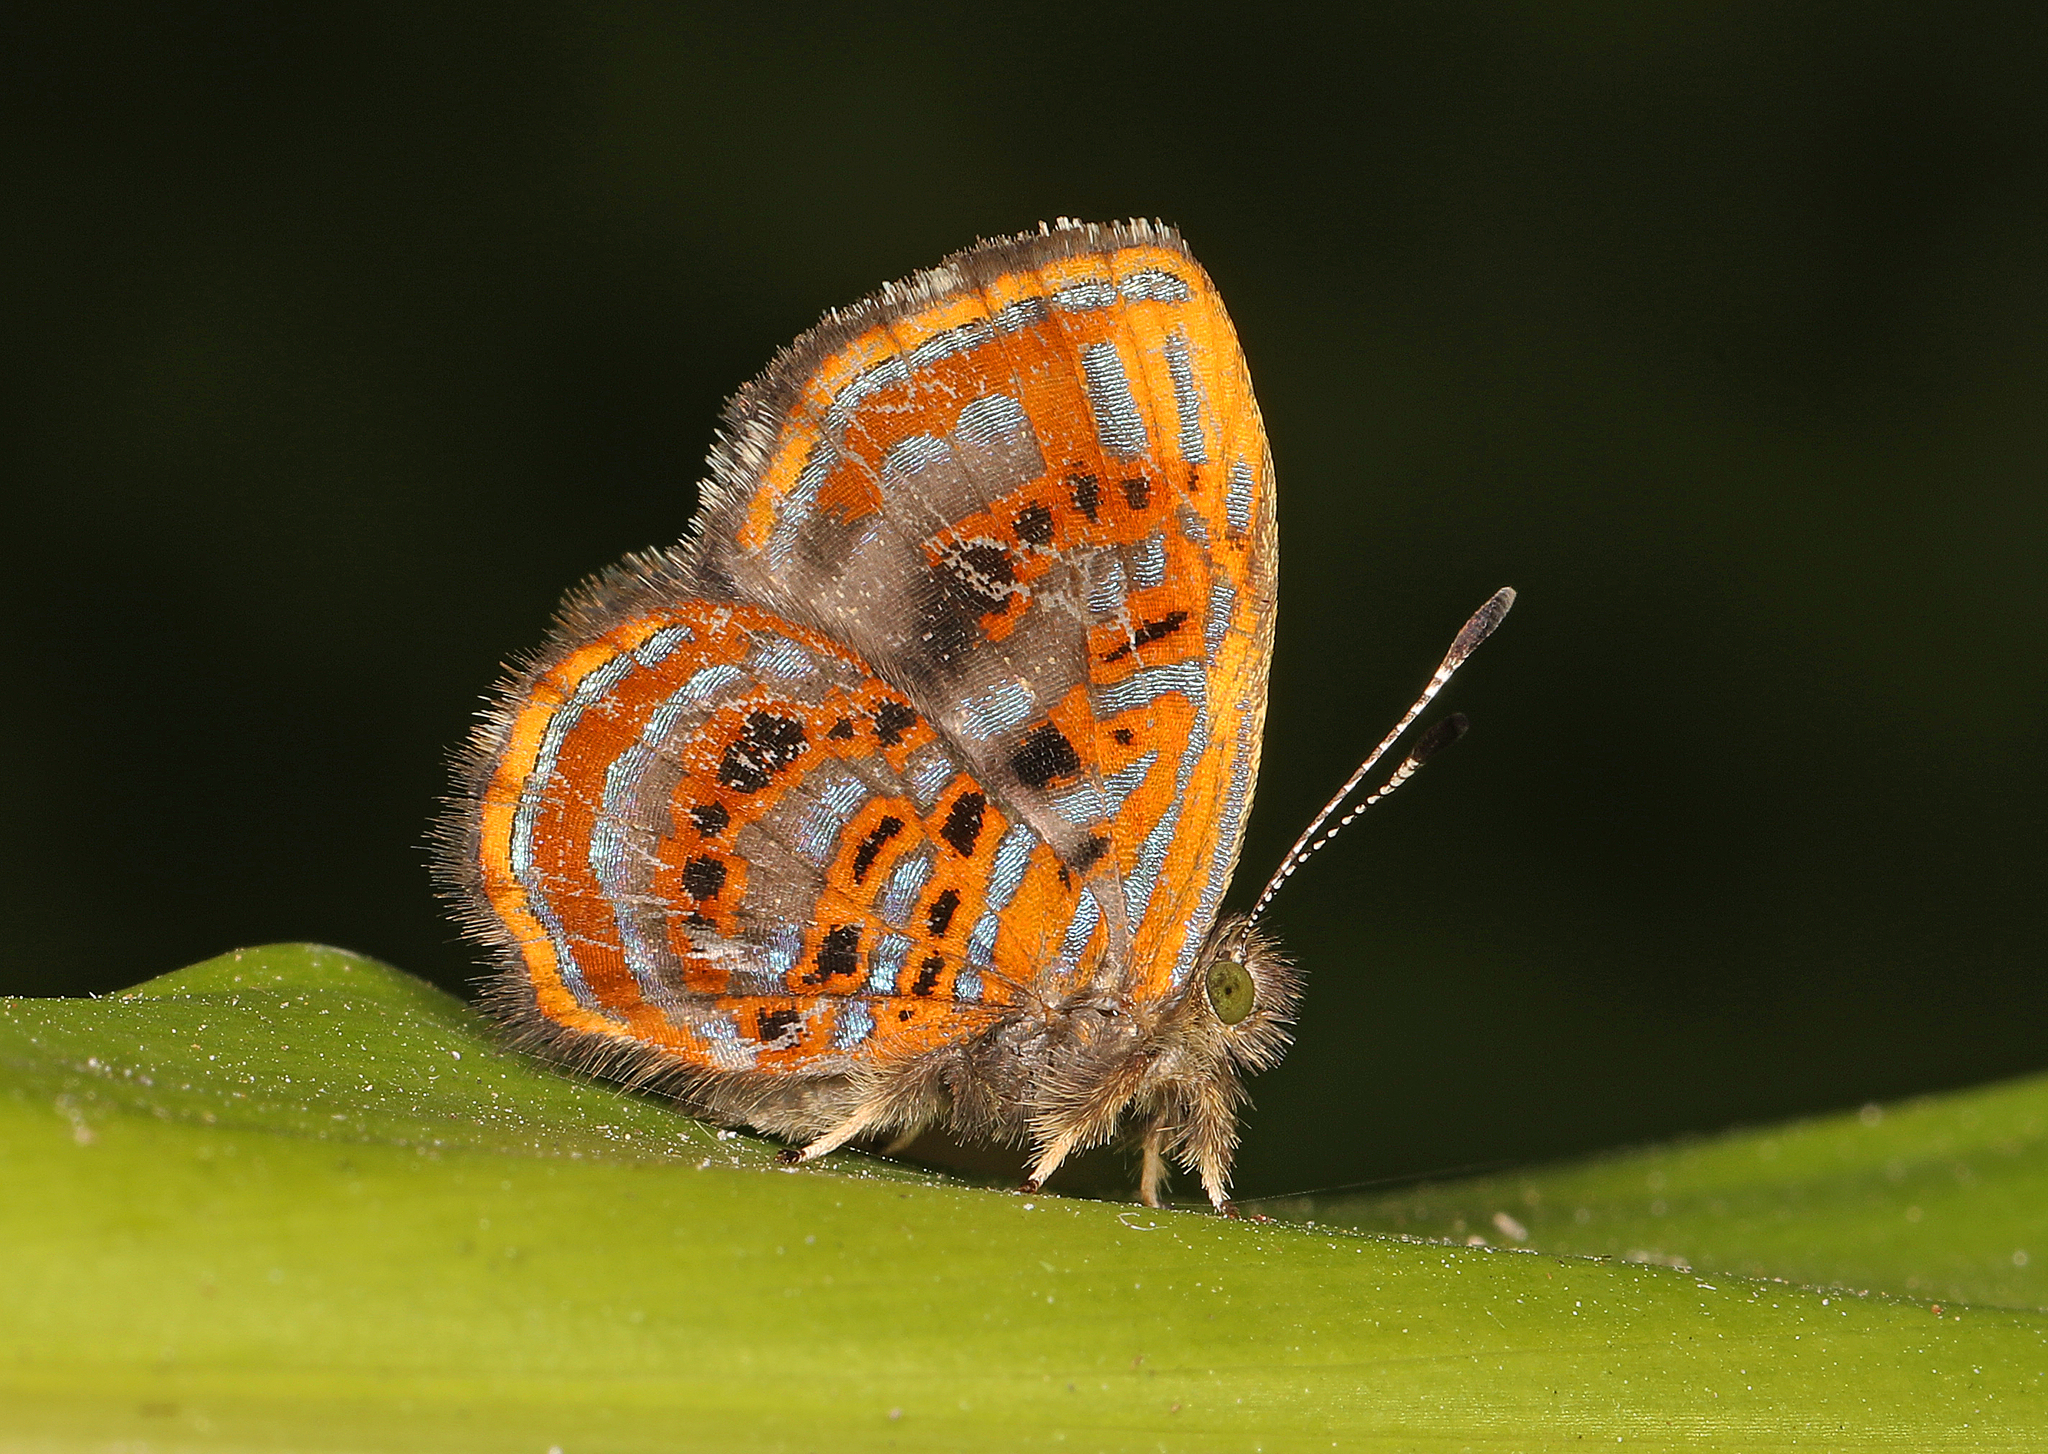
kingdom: Animalia
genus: Charis
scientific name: Charis acanthoides
